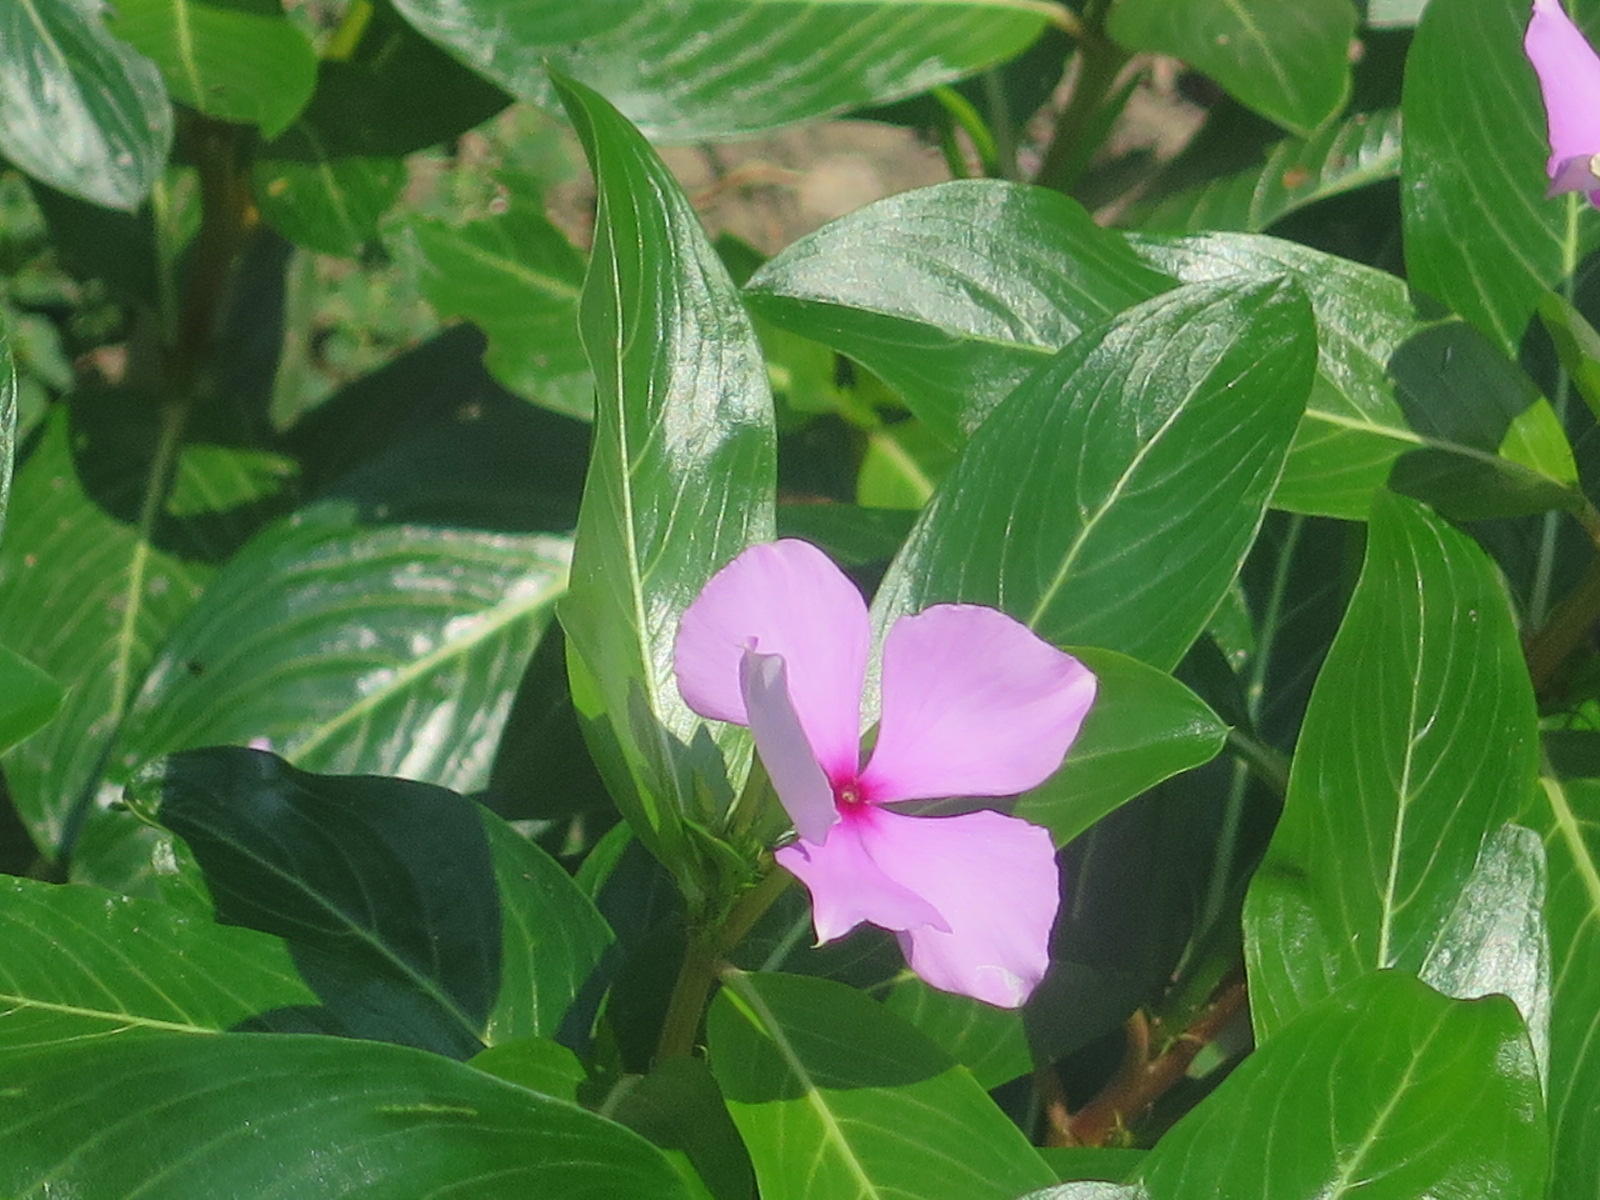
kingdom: Plantae
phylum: Tracheophyta
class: Magnoliopsida
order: Gentianales
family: Apocynaceae
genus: Catharanthus
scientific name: Catharanthus roseus
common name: Madagascar periwinkle
